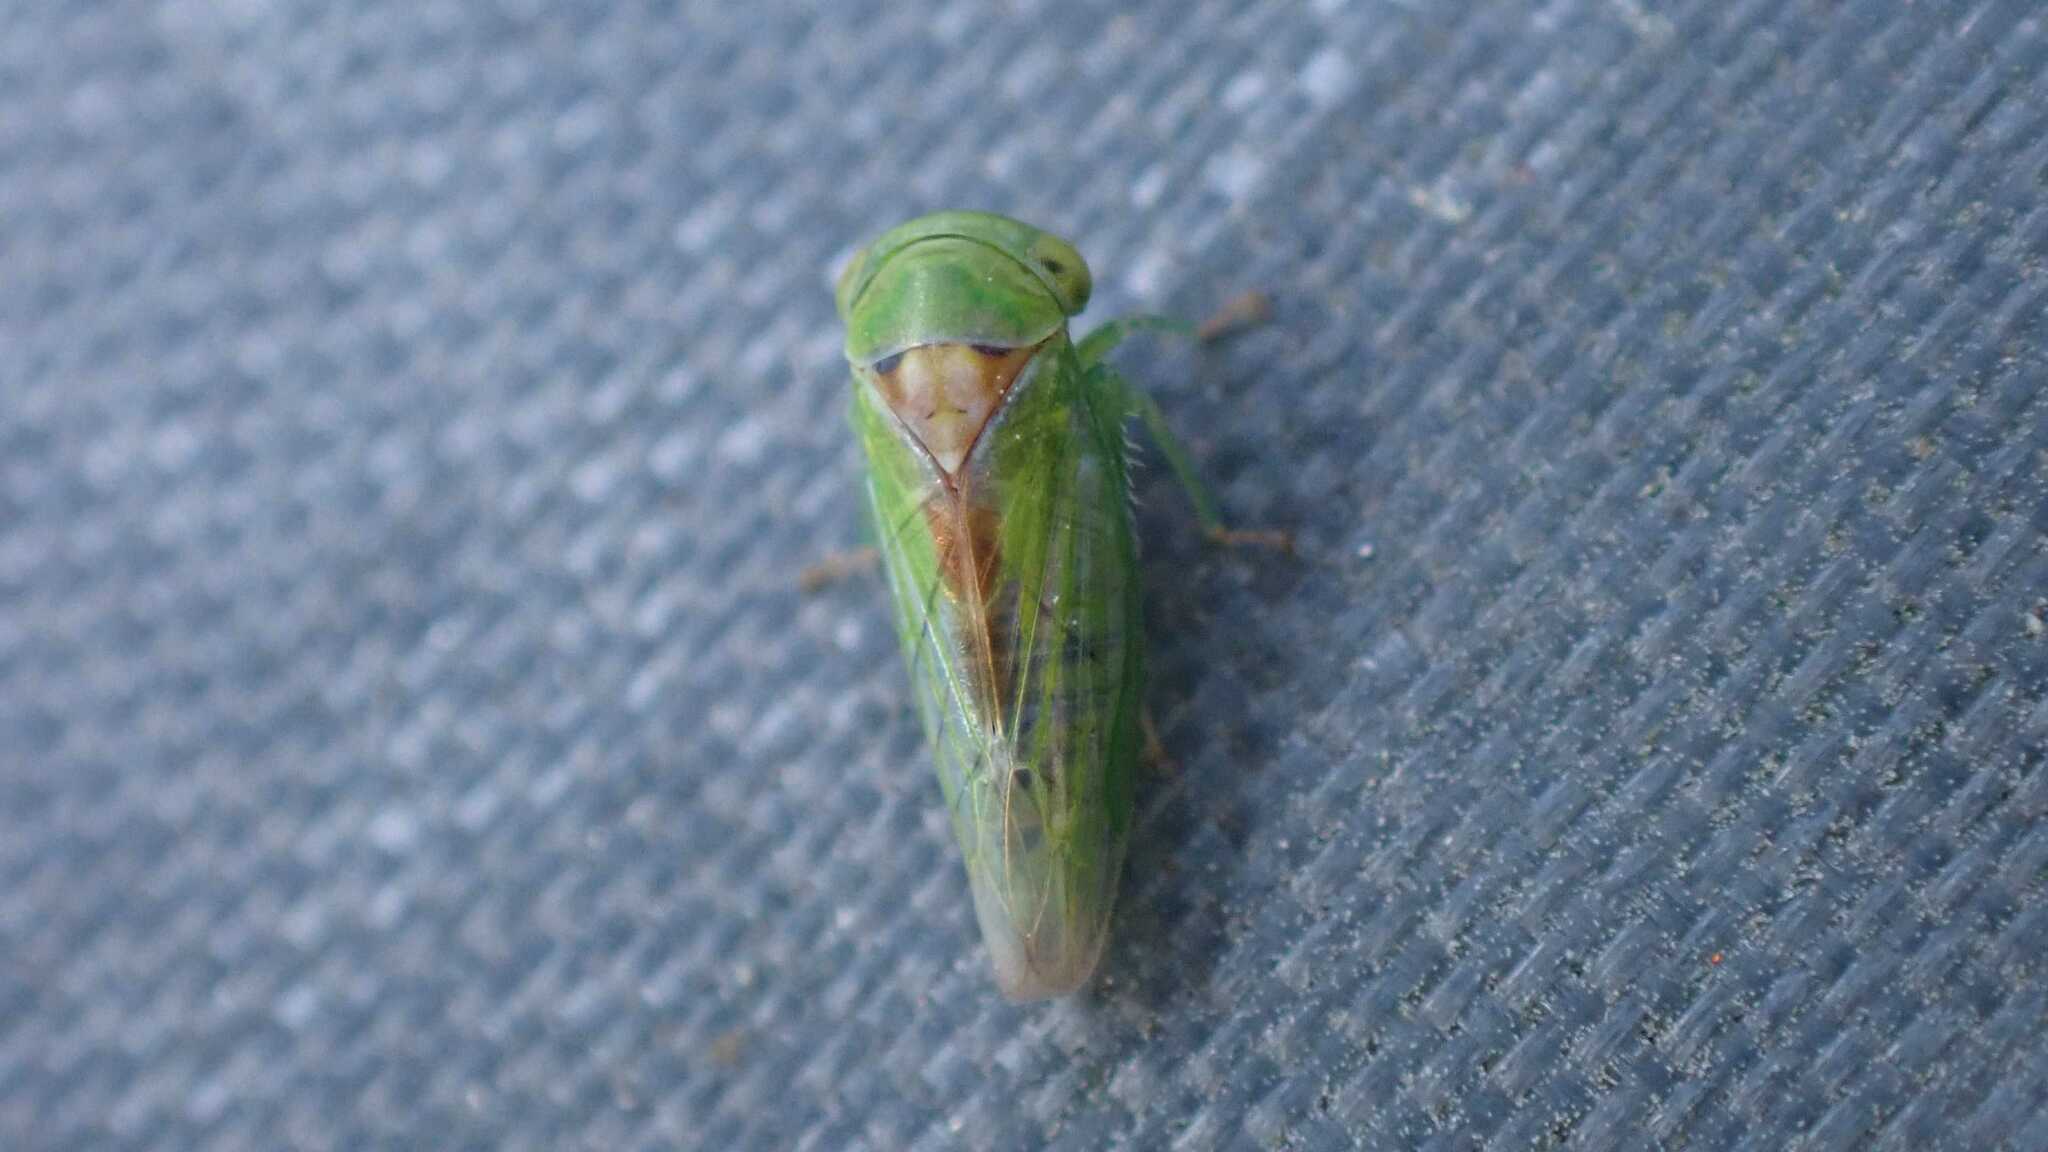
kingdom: Animalia
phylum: Arthropoda
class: Insecta
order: Hemiptera
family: Cicadellidae
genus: Viridicerus
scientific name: Viridicerus ustulatus
